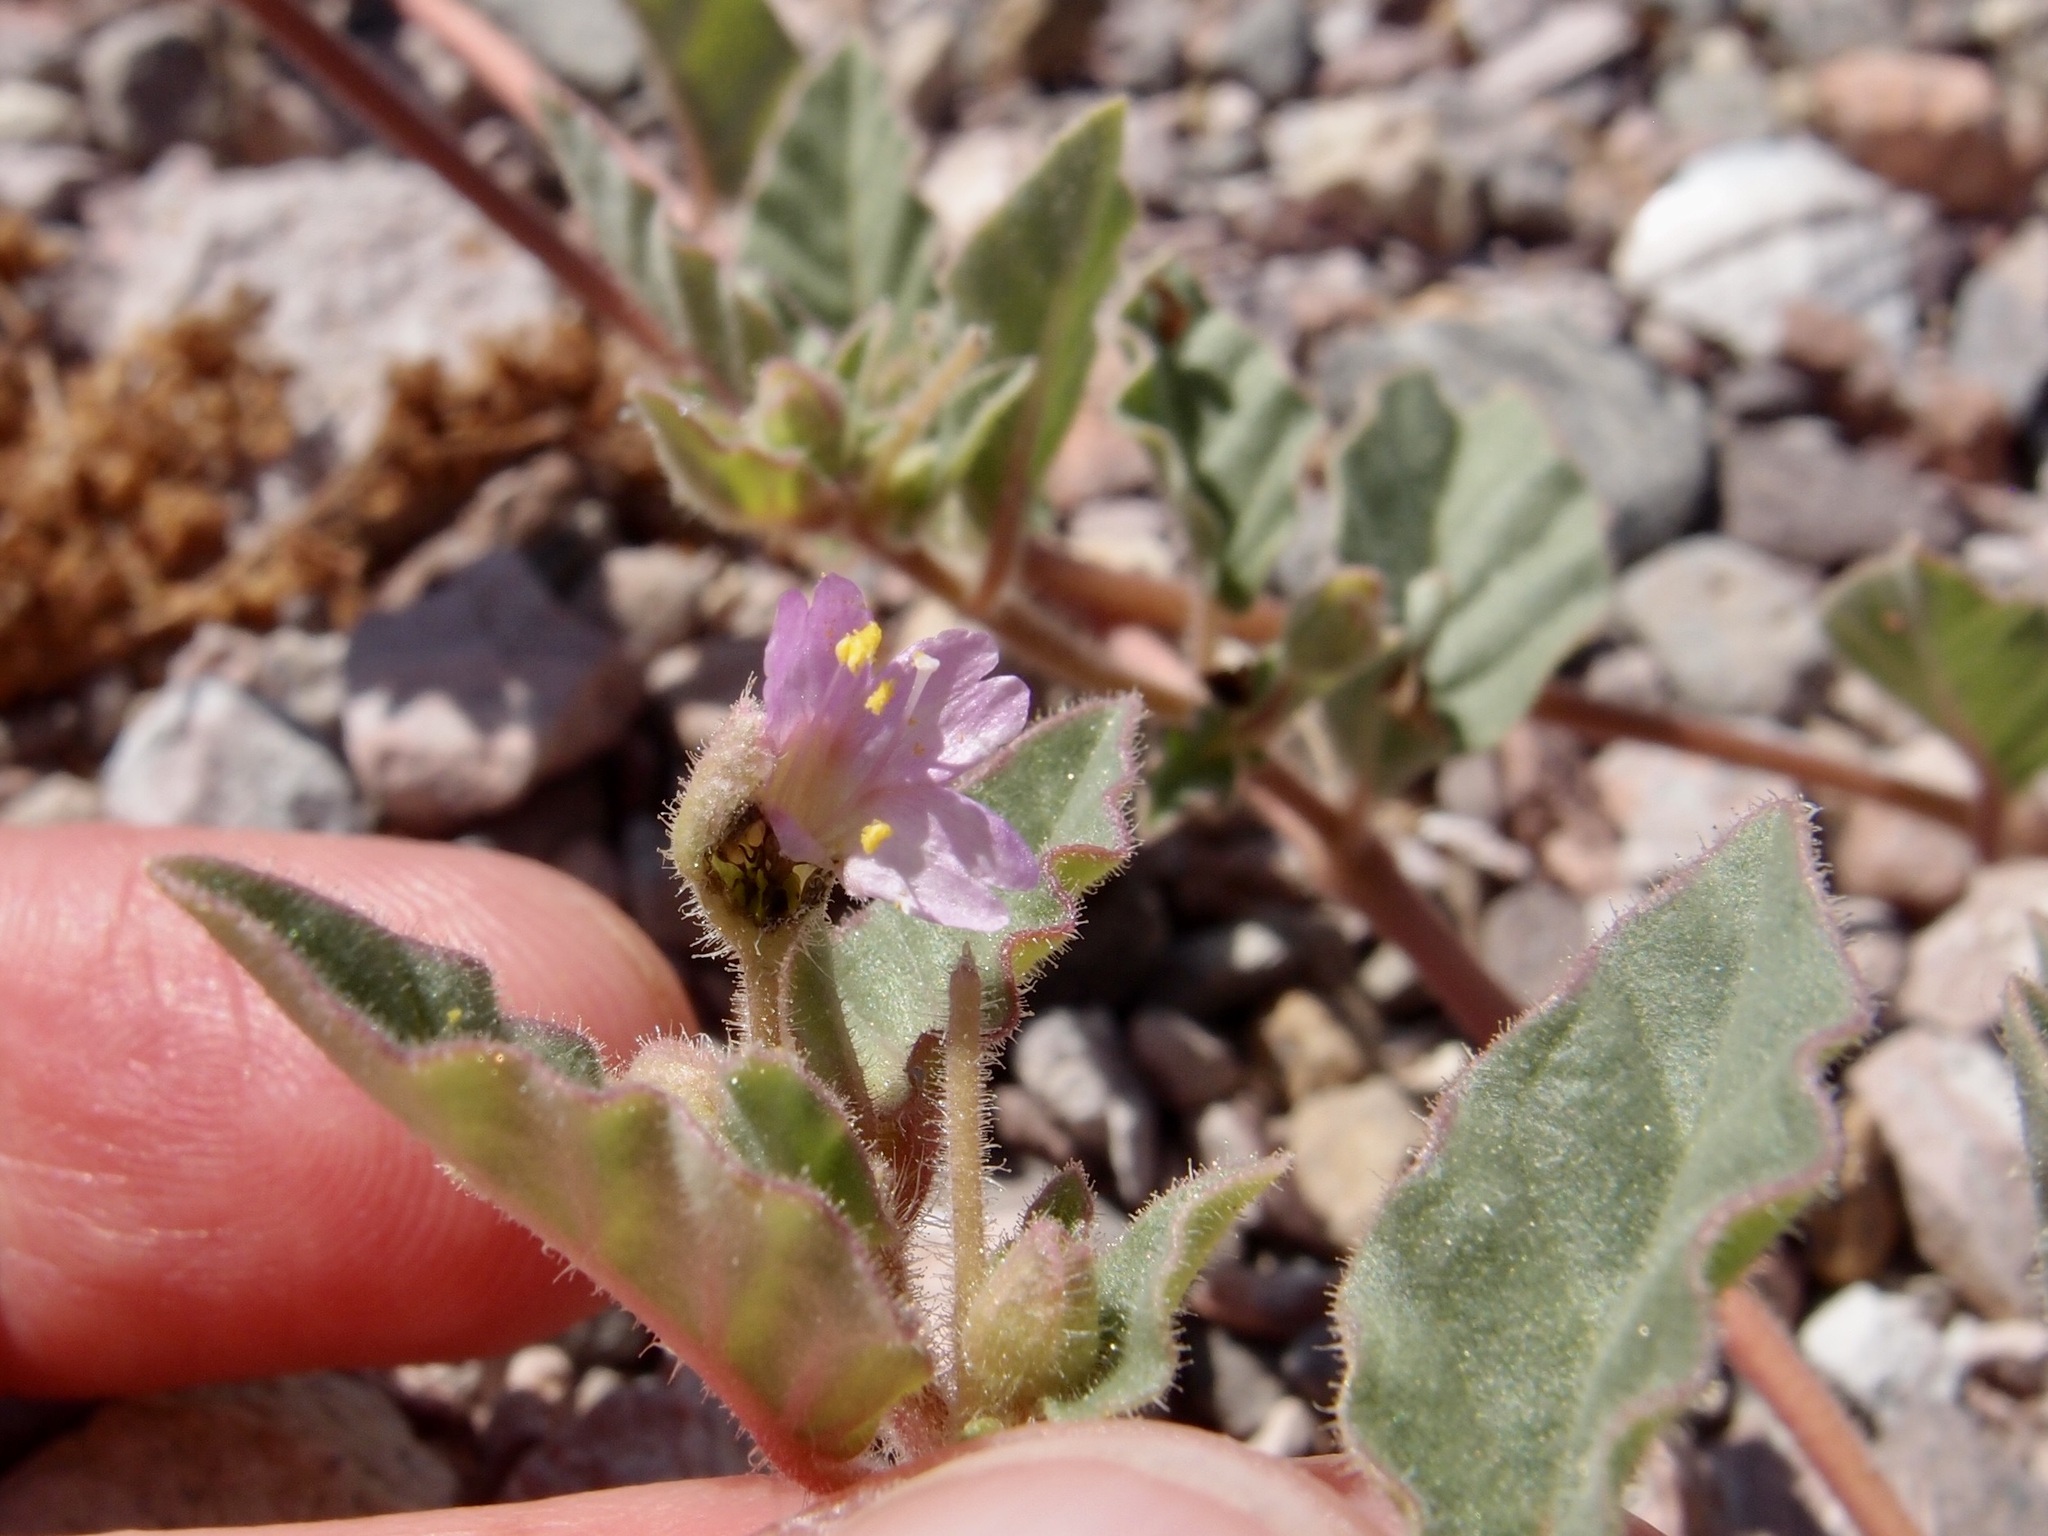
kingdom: Plantae
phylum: Tracheophyta
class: Magnoliopsida
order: Caryophyllales
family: Nyctaginaceae
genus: Allionia
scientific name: Allionia incarnata
